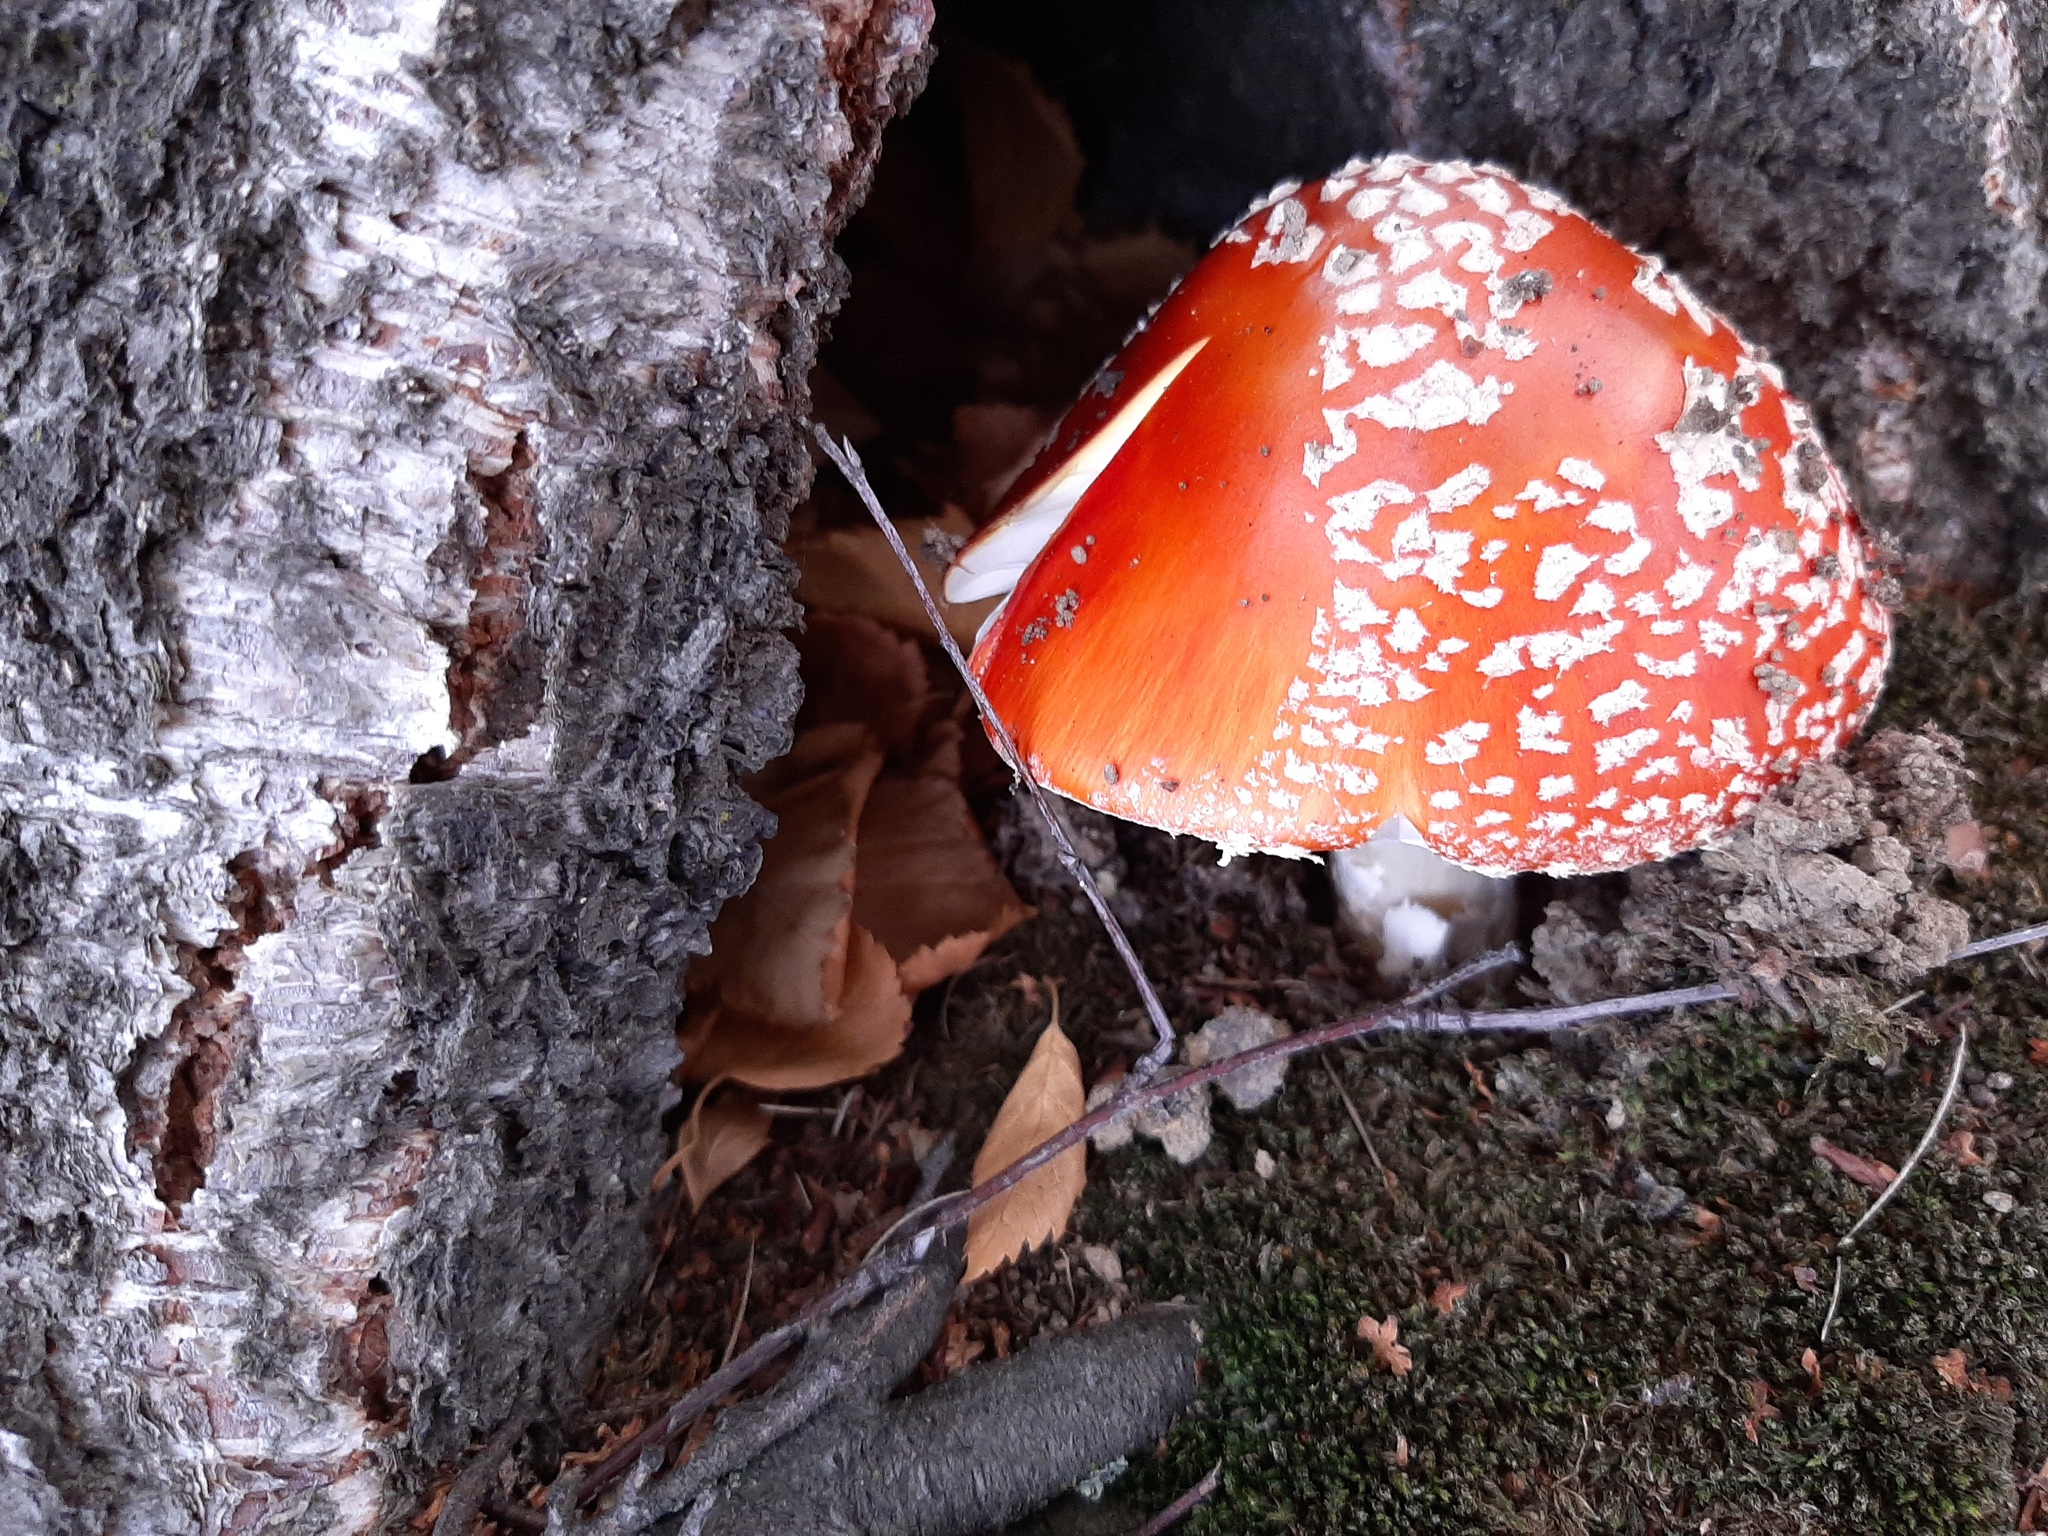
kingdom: Fungi
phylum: Basidiomycota
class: Agaricomycetes
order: Agaricales
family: Amanitaceae
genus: Amanita
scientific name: Amanita muscaria
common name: Fly agaric
